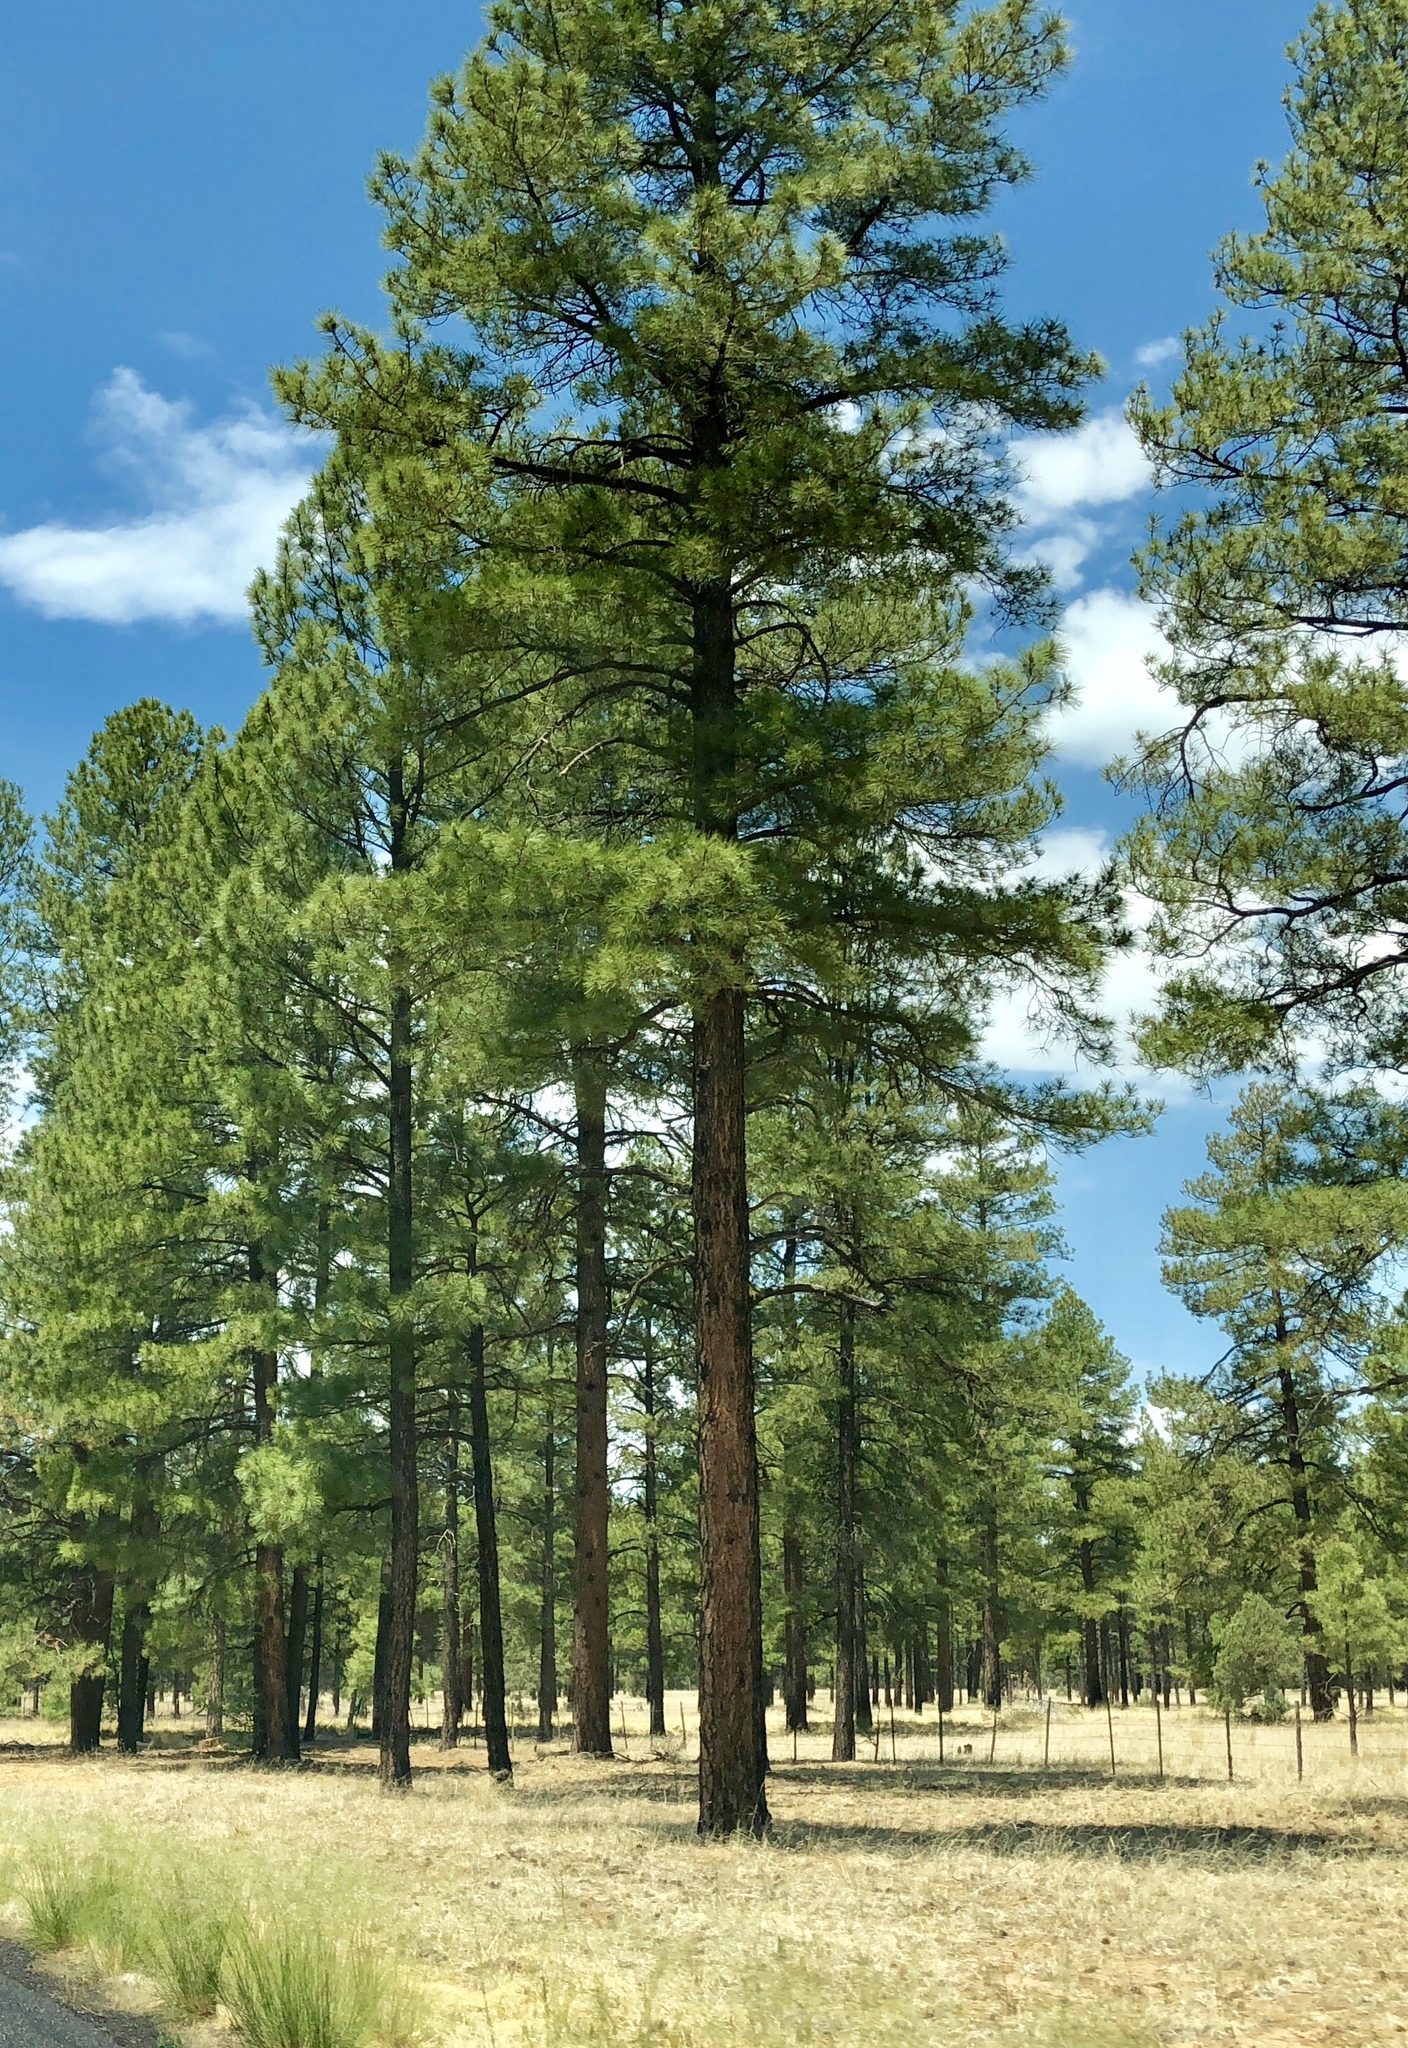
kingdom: Plantae
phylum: Tracheophyta
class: Pinopsida
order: Pinales
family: Pinaceae
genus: Pinus
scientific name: Pinus ponderosa
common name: Western yellow-pine
